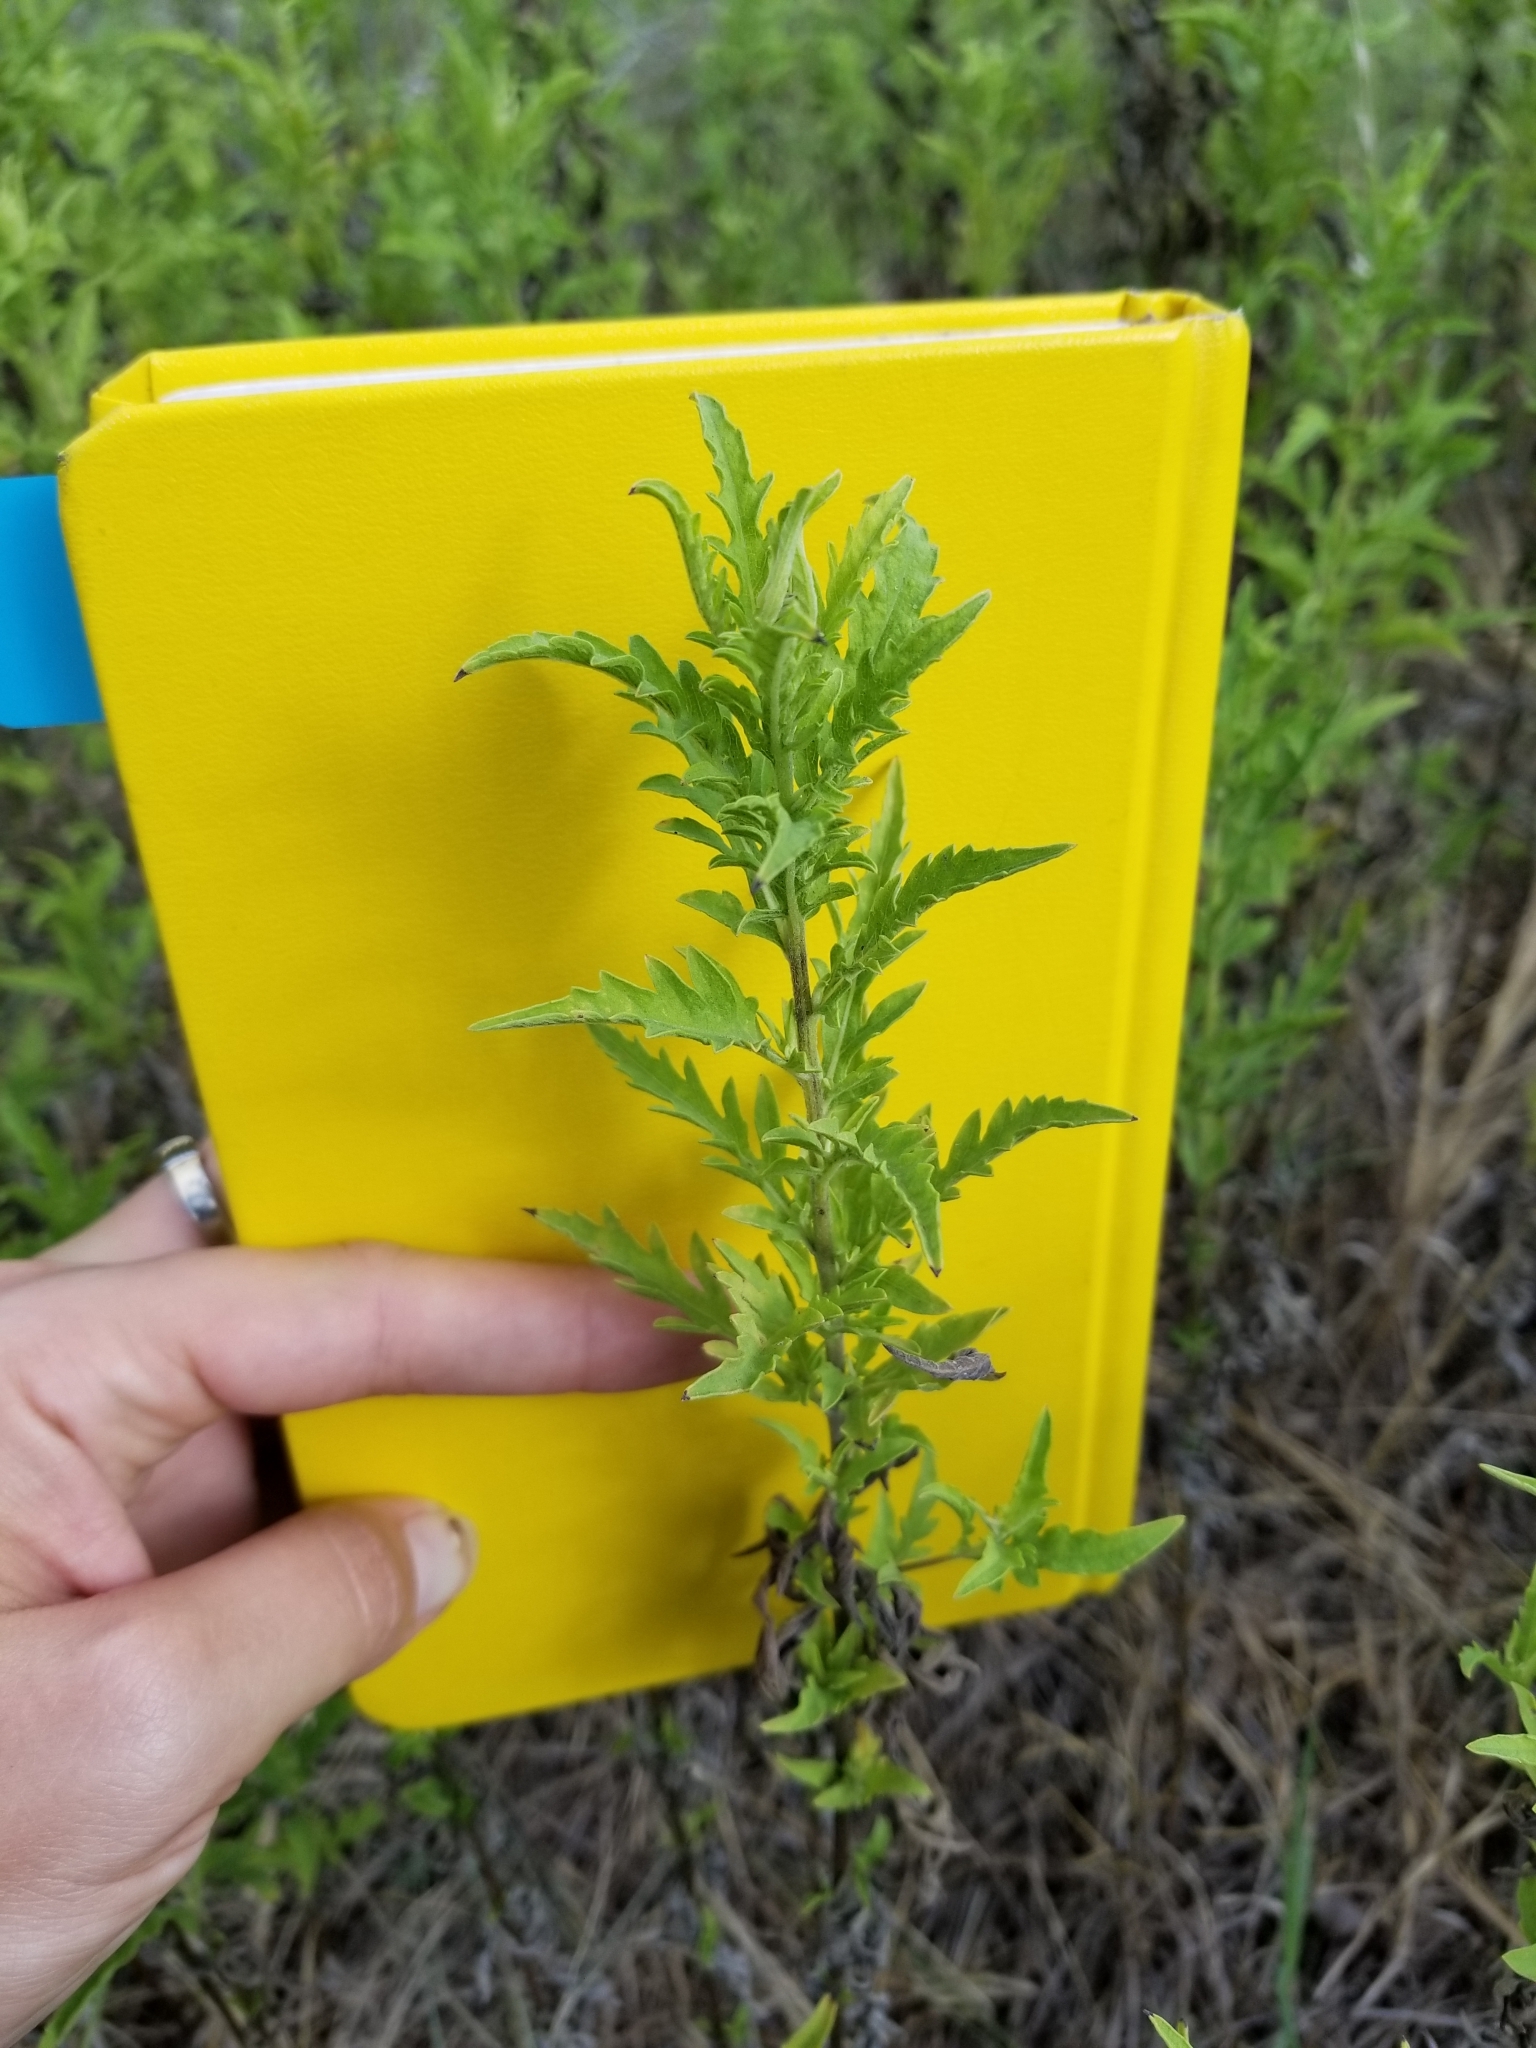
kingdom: Plantae
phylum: Tracheophyta
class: Magnoliopsida
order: Asterales
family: Asteraceae
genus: Ambrosia
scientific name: Ambrosia psilostachya
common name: Perennial ragweed
